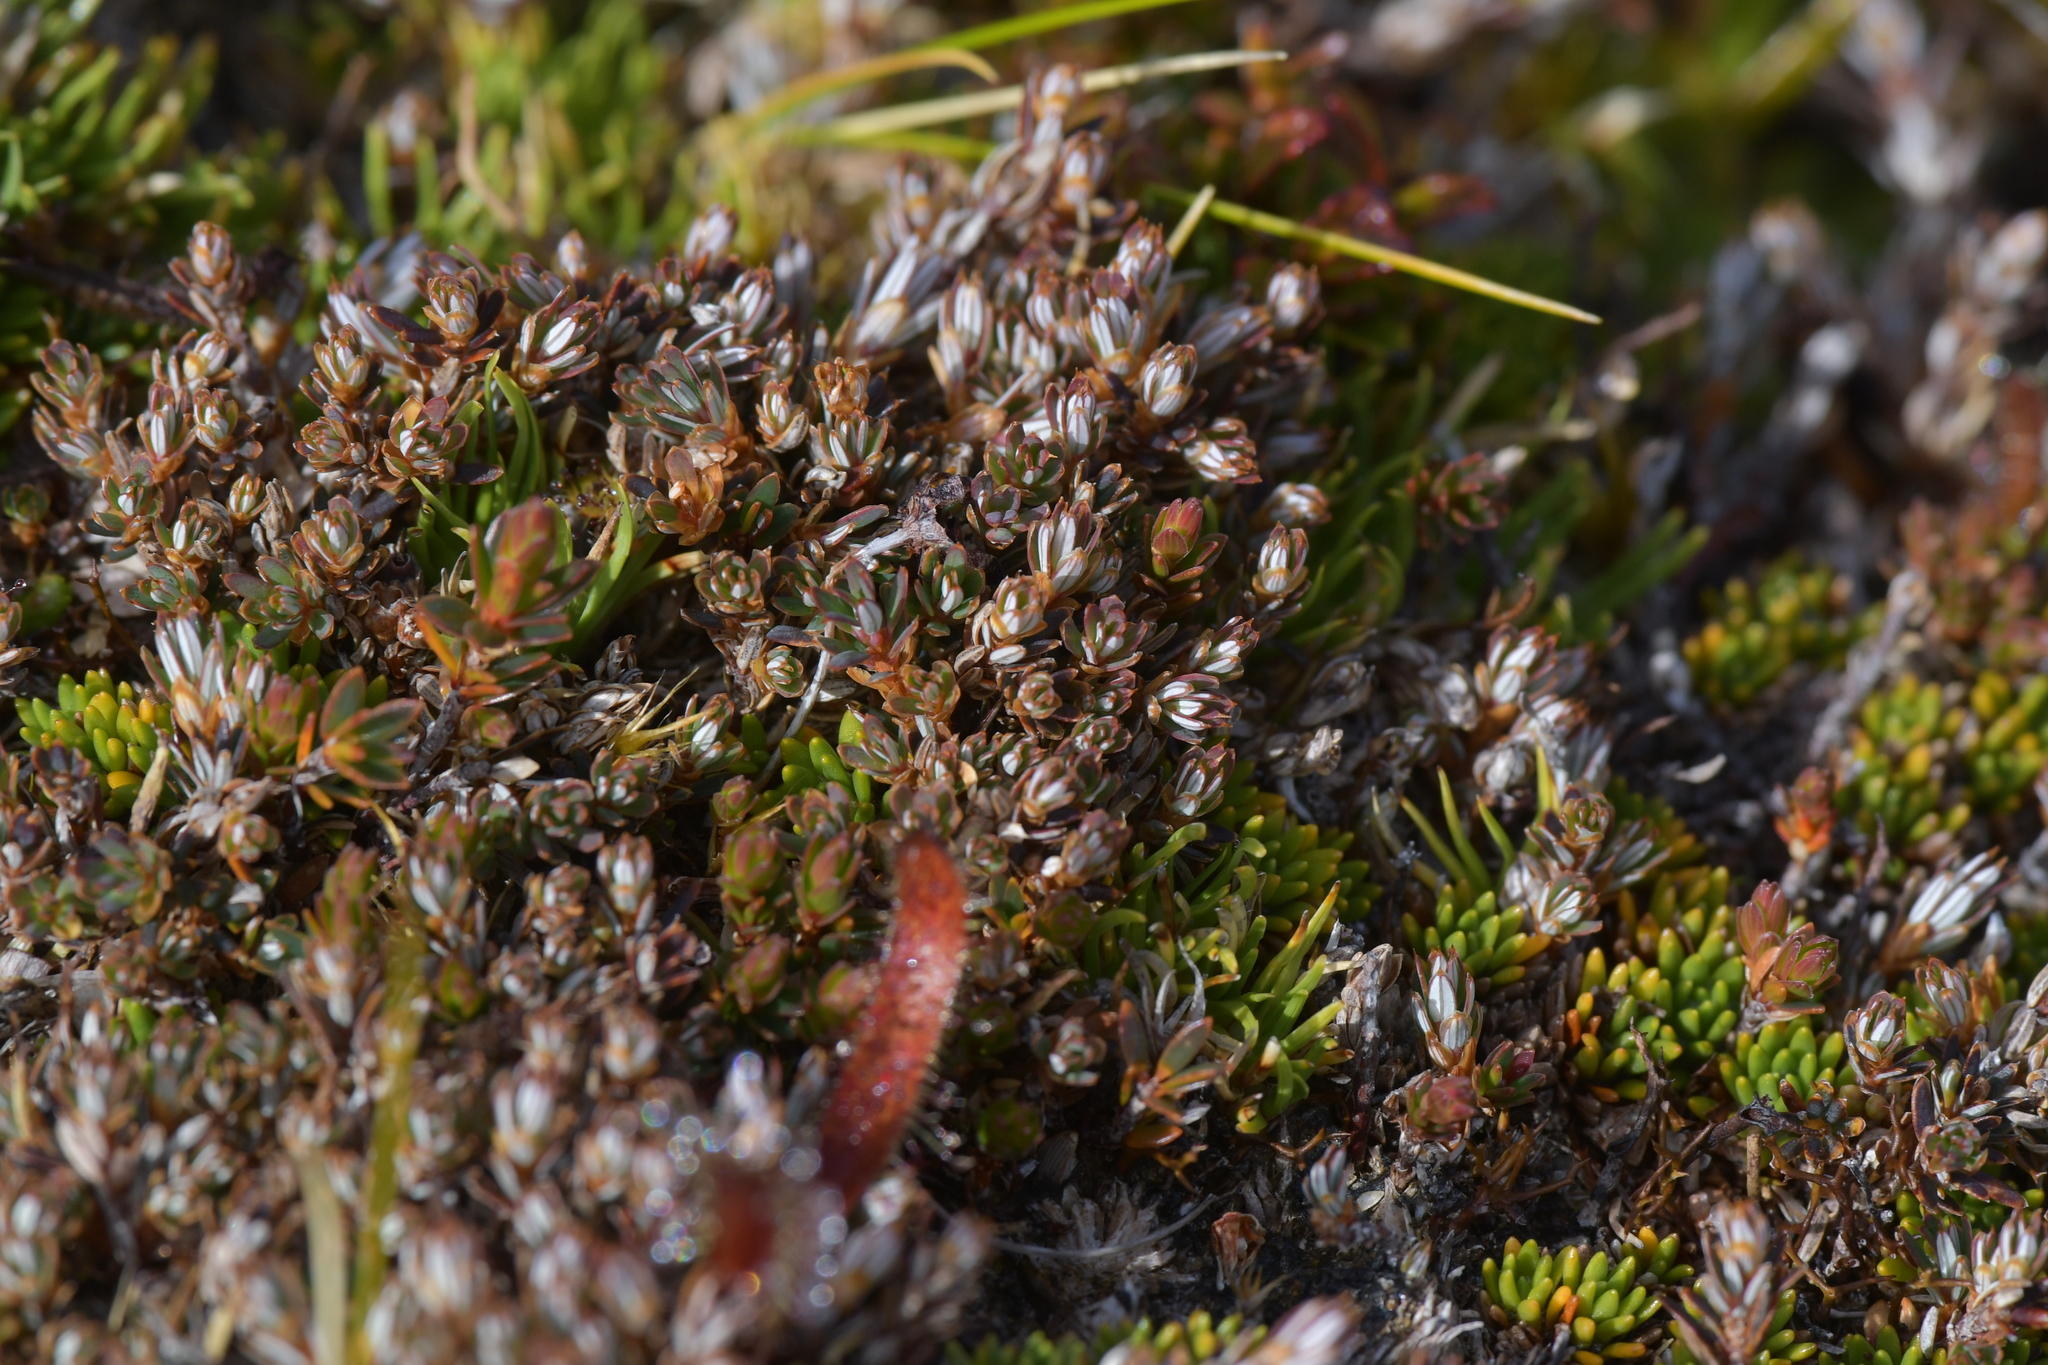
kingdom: Plantae
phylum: Tracheophyta
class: Magnoliopsida
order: Ericales
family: Ericaceae
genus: Montitega
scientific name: Montitega dealbata
